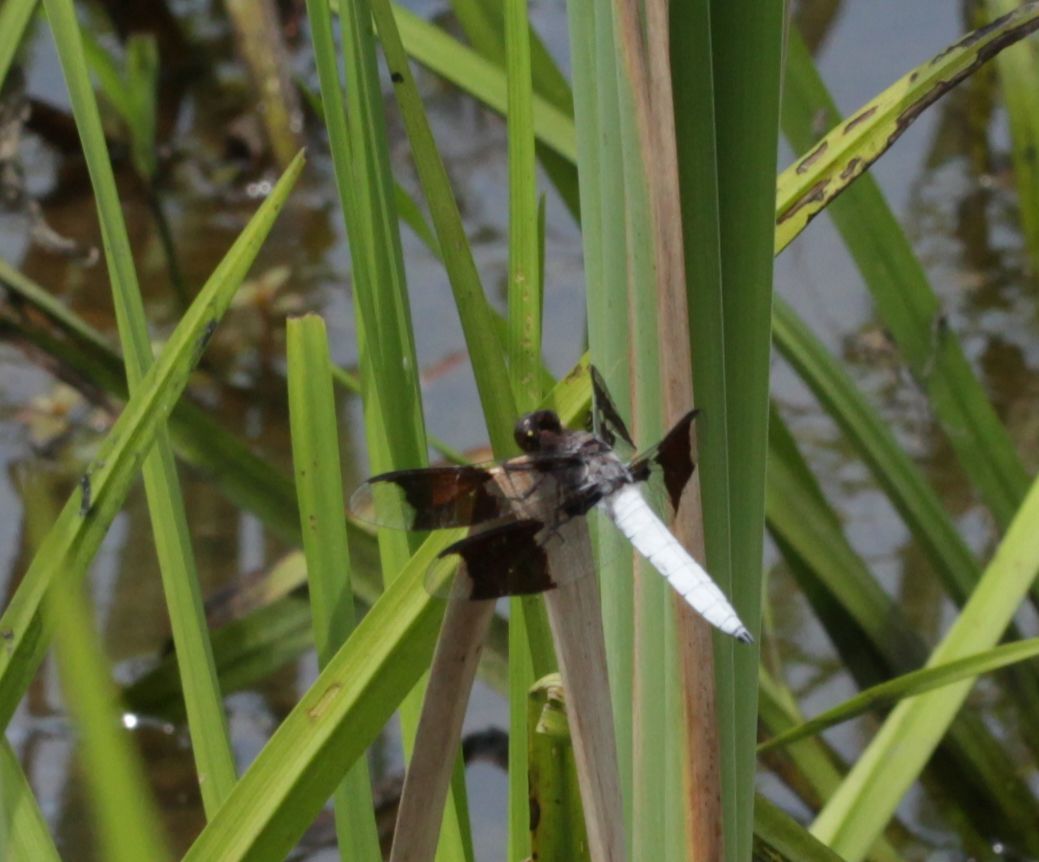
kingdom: Animalia
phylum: Arthropoda
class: Insecta
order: Odonata
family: Libellulidae
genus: Plathemis
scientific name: Plathemis lydia
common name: Common whitetail
